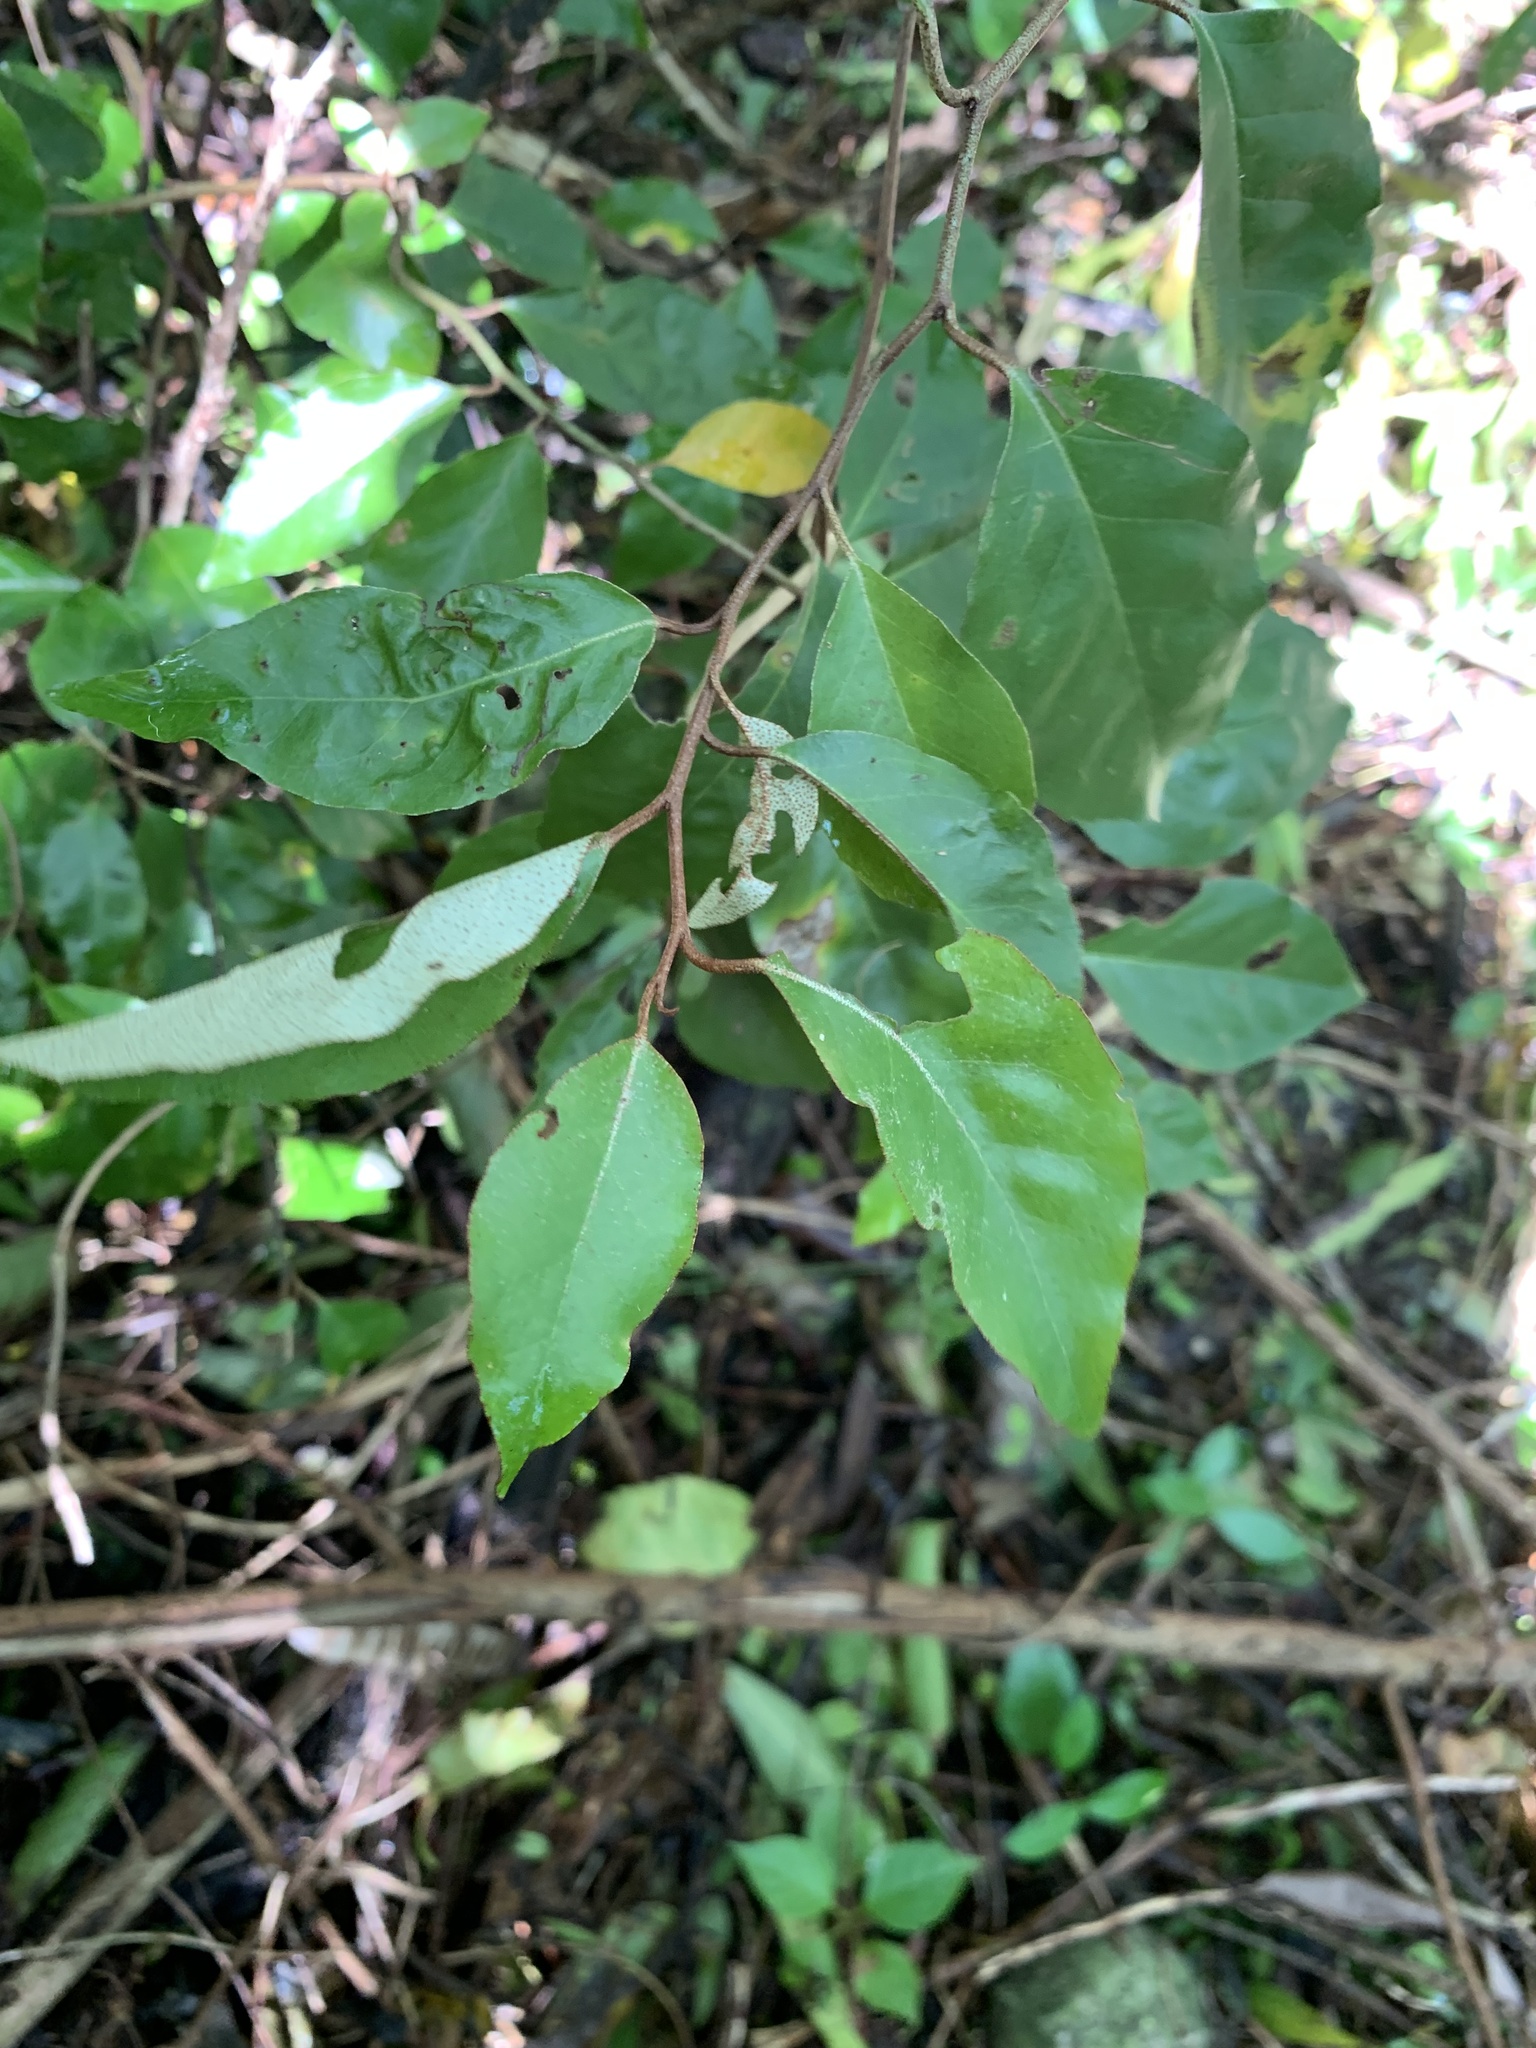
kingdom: Plantae
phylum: Tracheophyta
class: Magnoliopsida
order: Rosales
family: Elaeagnaceae
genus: Elaeagnus
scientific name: Elaeagnus rotundata
